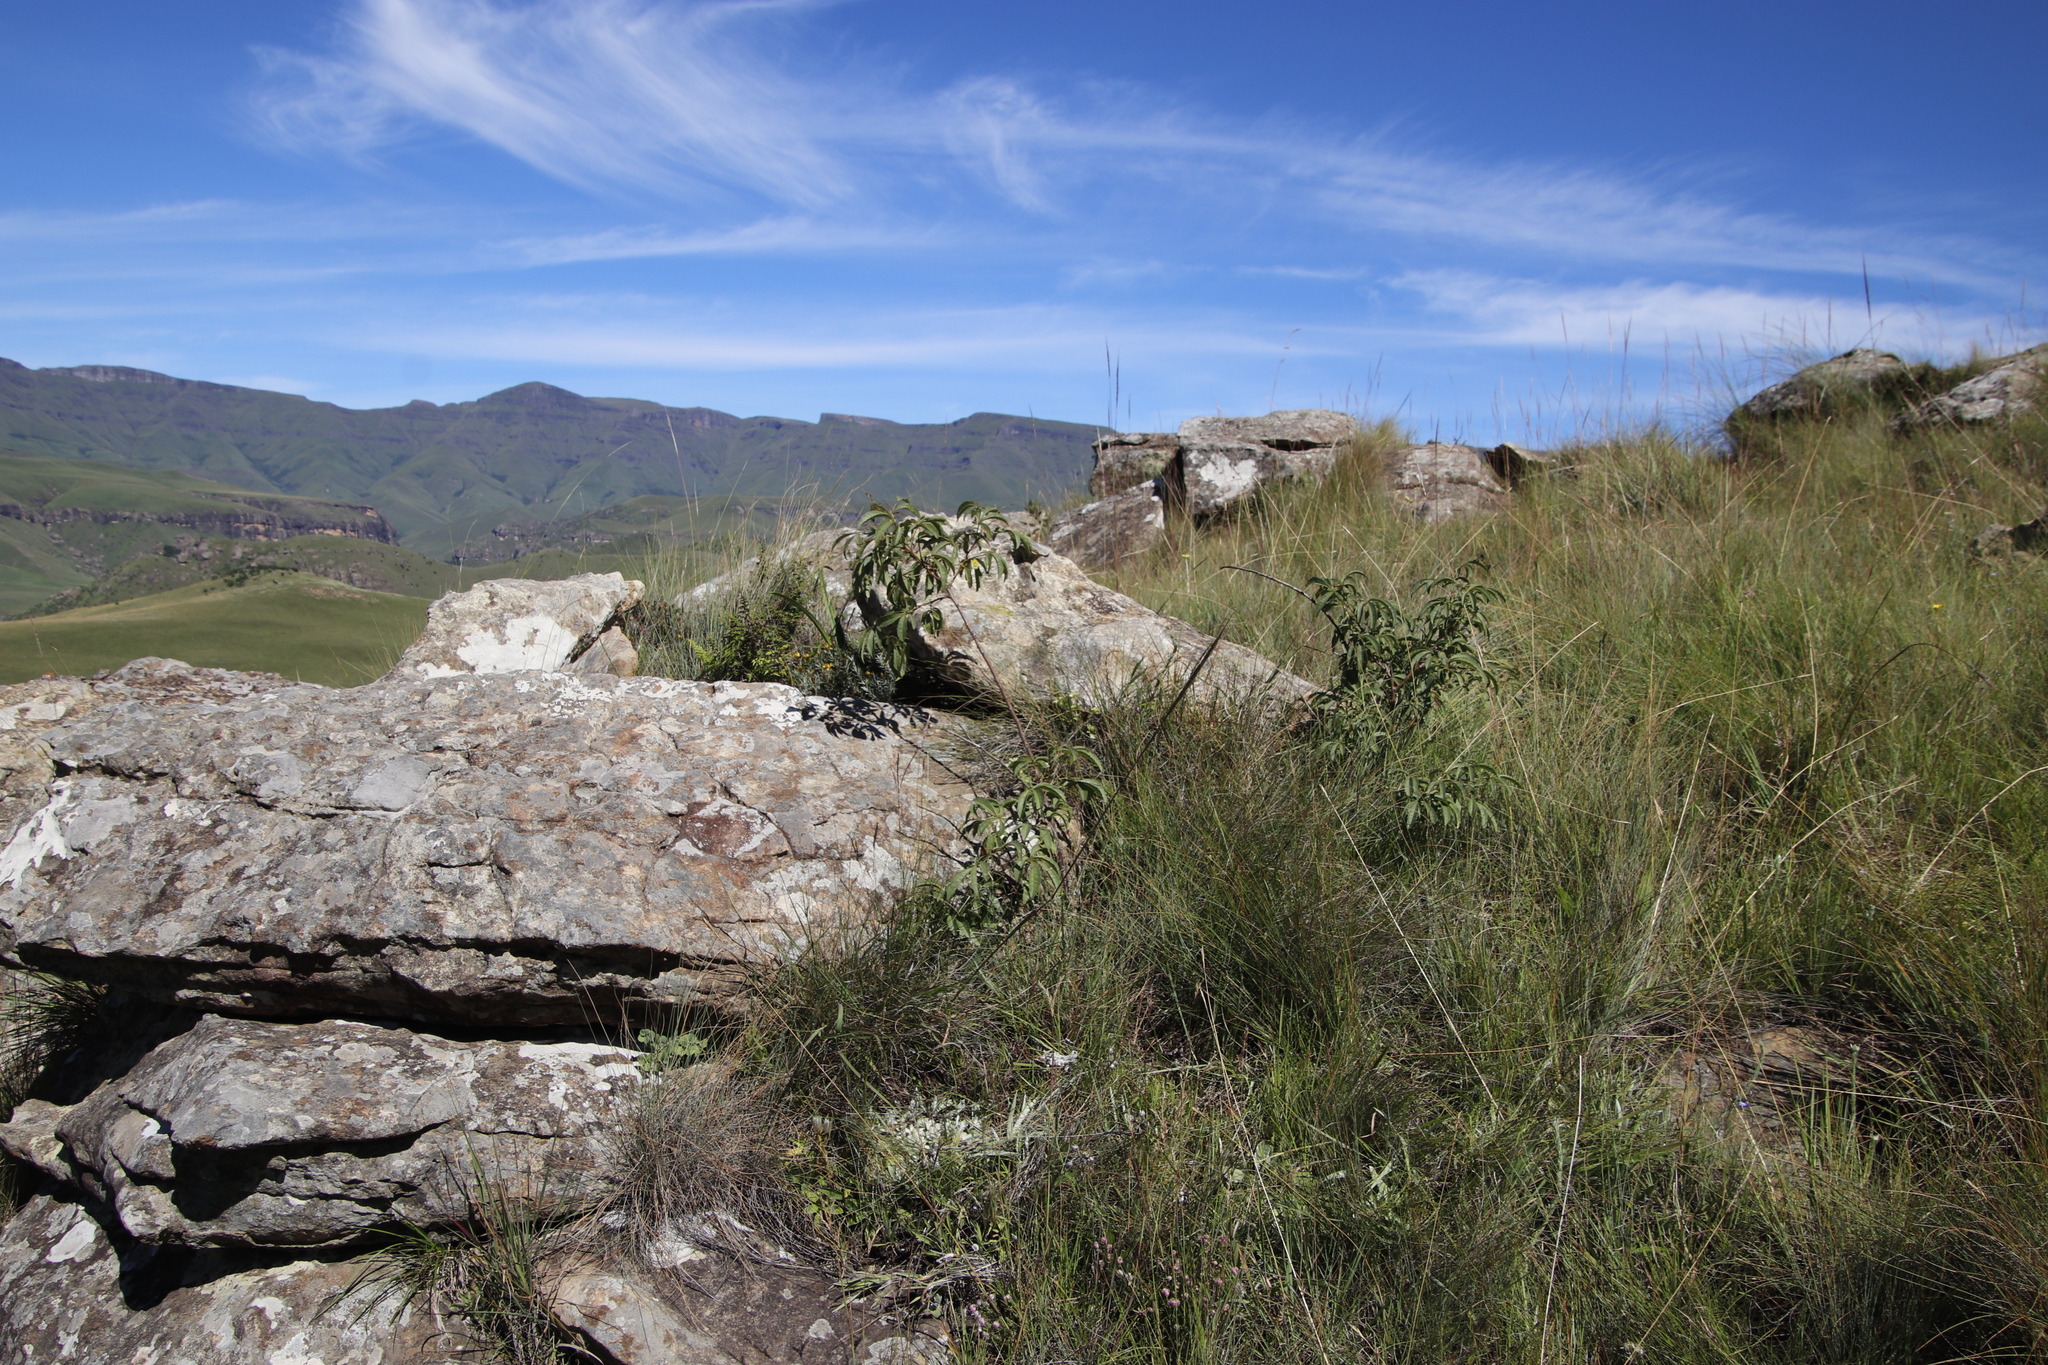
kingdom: Plantae
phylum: Tracheophyta
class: Magnoliopsida
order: Sapindales
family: Anacardiaceae
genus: Searsia
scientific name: Searsia montana
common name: Drakensberg karee
